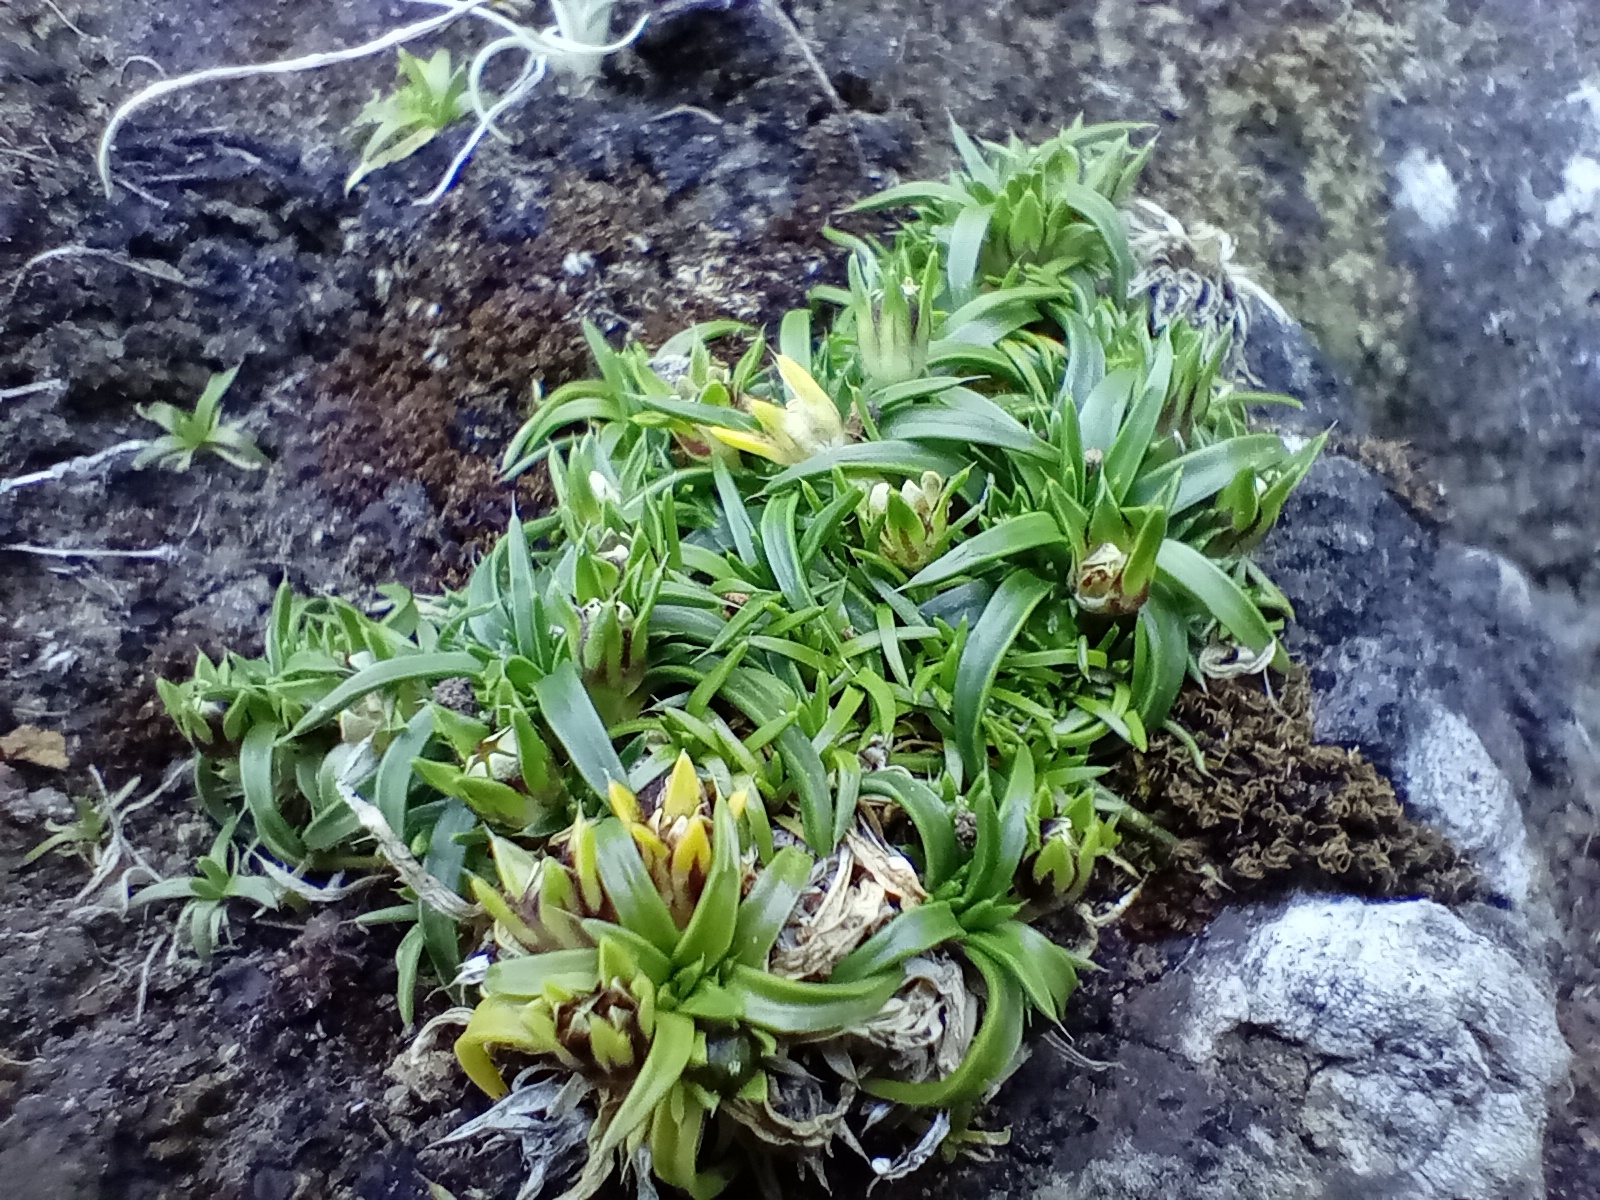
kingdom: Plantae
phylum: Tracheophyta
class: Magnoliopsida
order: Caryophyllales
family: Caryophyllaceae
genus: Colobanthus
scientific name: Colobanthus muelleri
